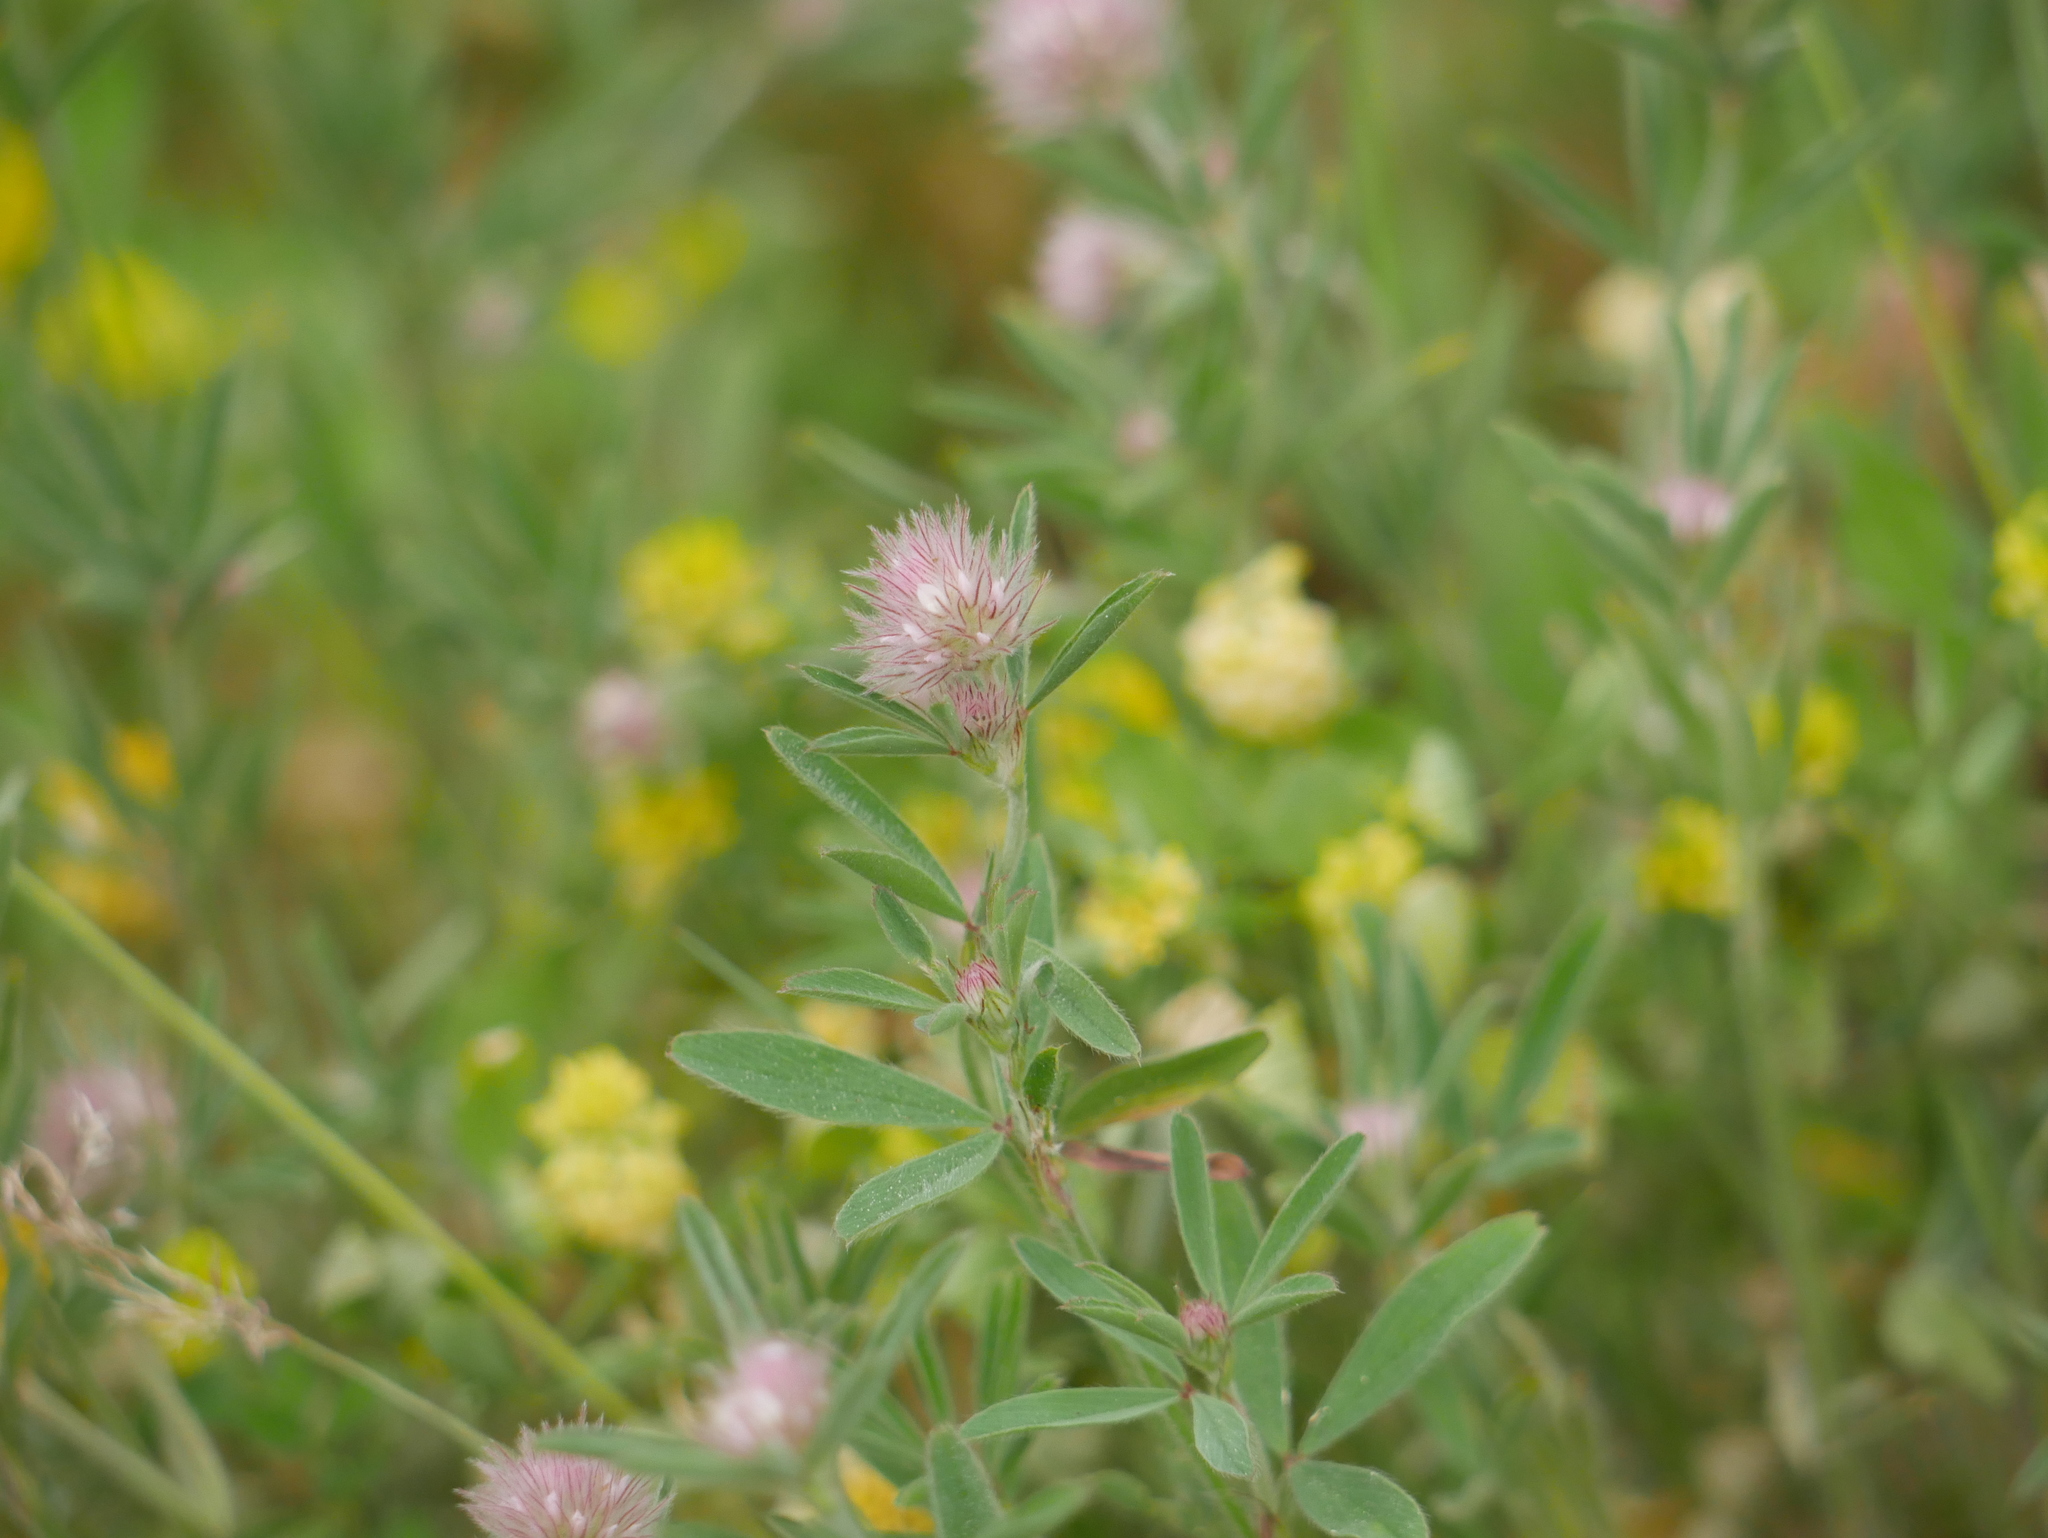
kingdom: Plantae
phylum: Tracheophyta
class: Magnoliopsida
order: Fabales
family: Fabaceae
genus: Trifolium
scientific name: Trifolium arvense
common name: Hare's-foot clover
